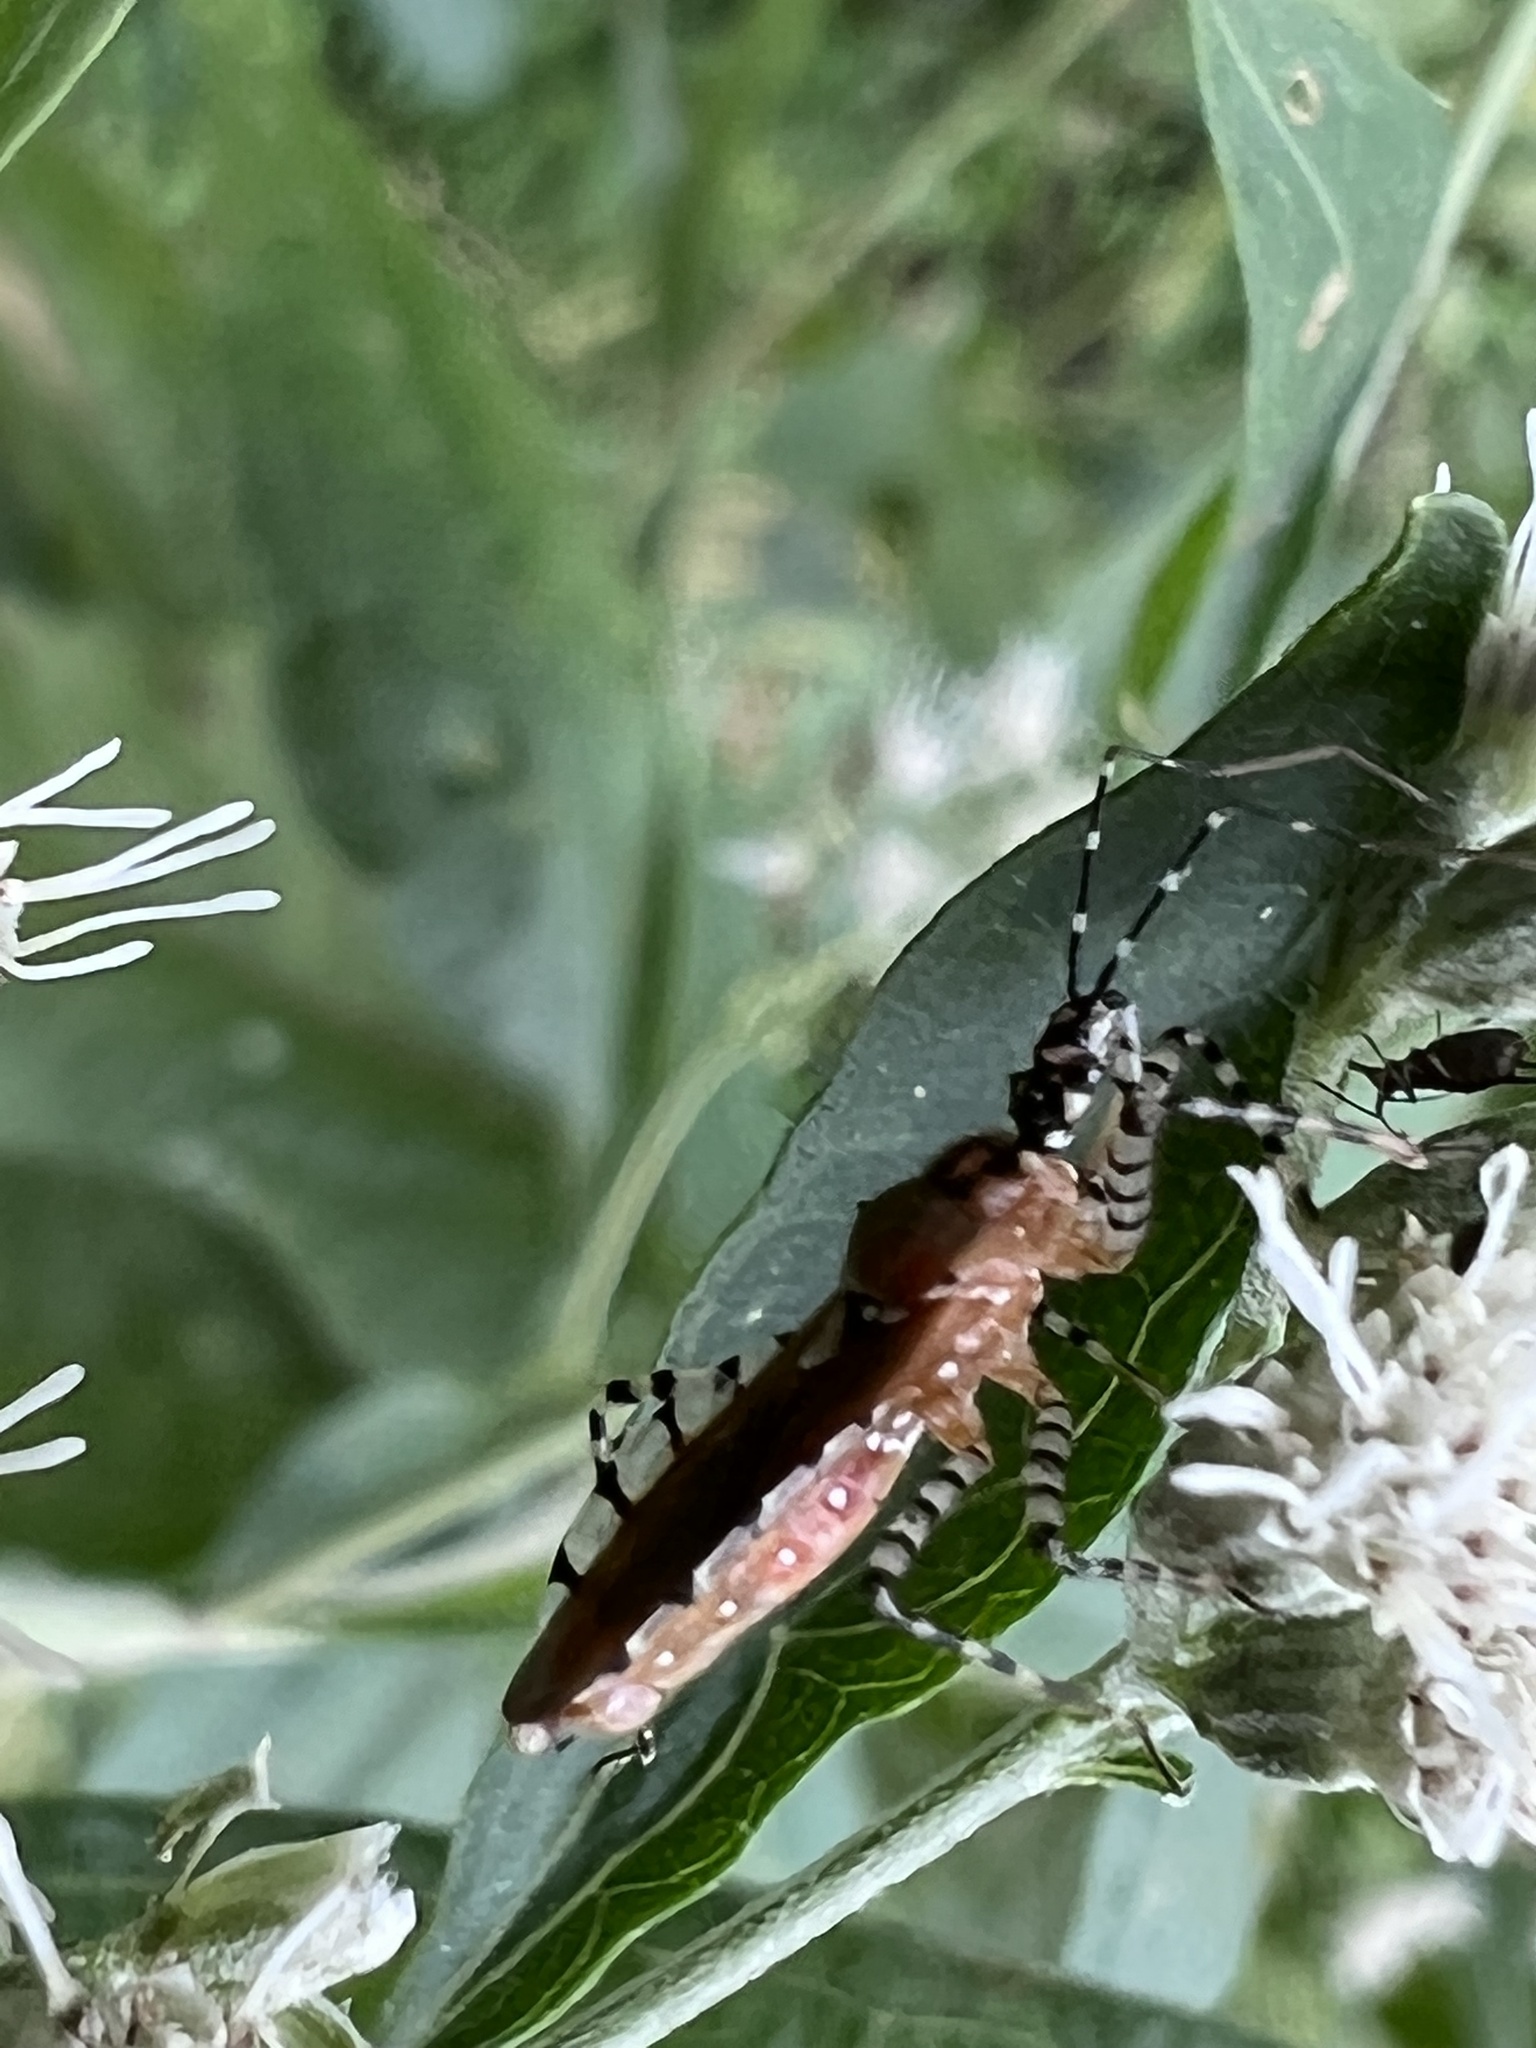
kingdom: Animalia
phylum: Arthropoda
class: Insecta
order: Hemiptera
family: Reduviidae
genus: Pselliopus
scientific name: Pselliopus cinctus
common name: Ringed assassin bug
